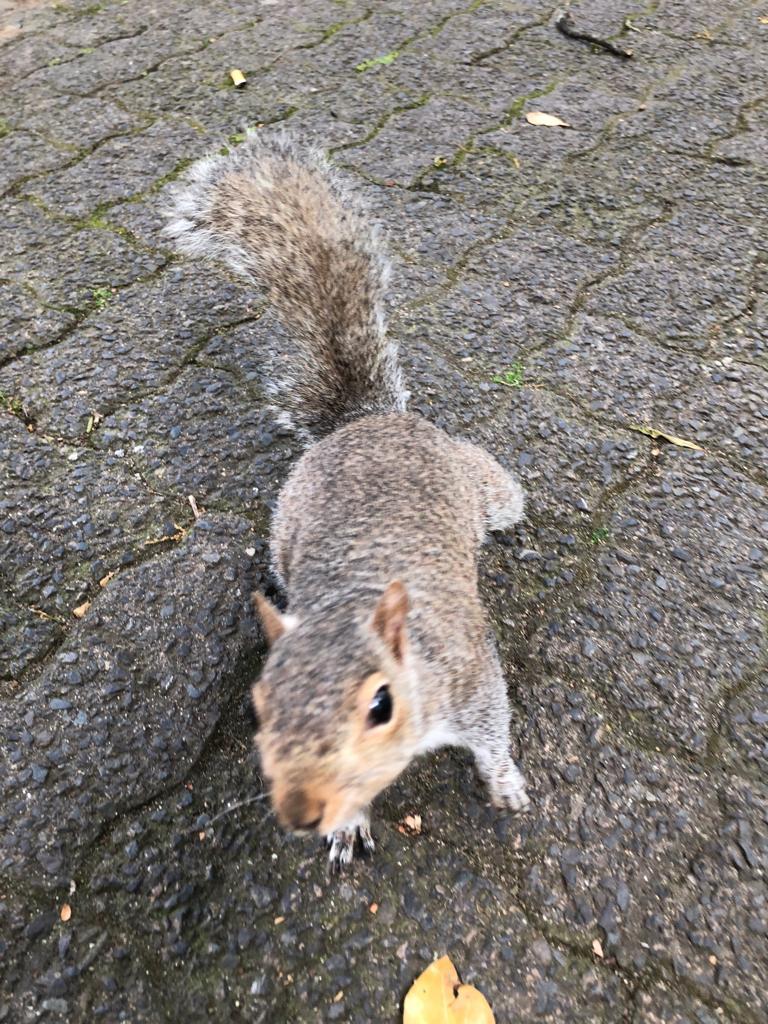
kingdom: Animalia
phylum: Chordata
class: Mammalia
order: Rodentia
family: Sciuridae
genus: Sciurus
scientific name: Sciurus carolinensis
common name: Eastern gray squirrel
